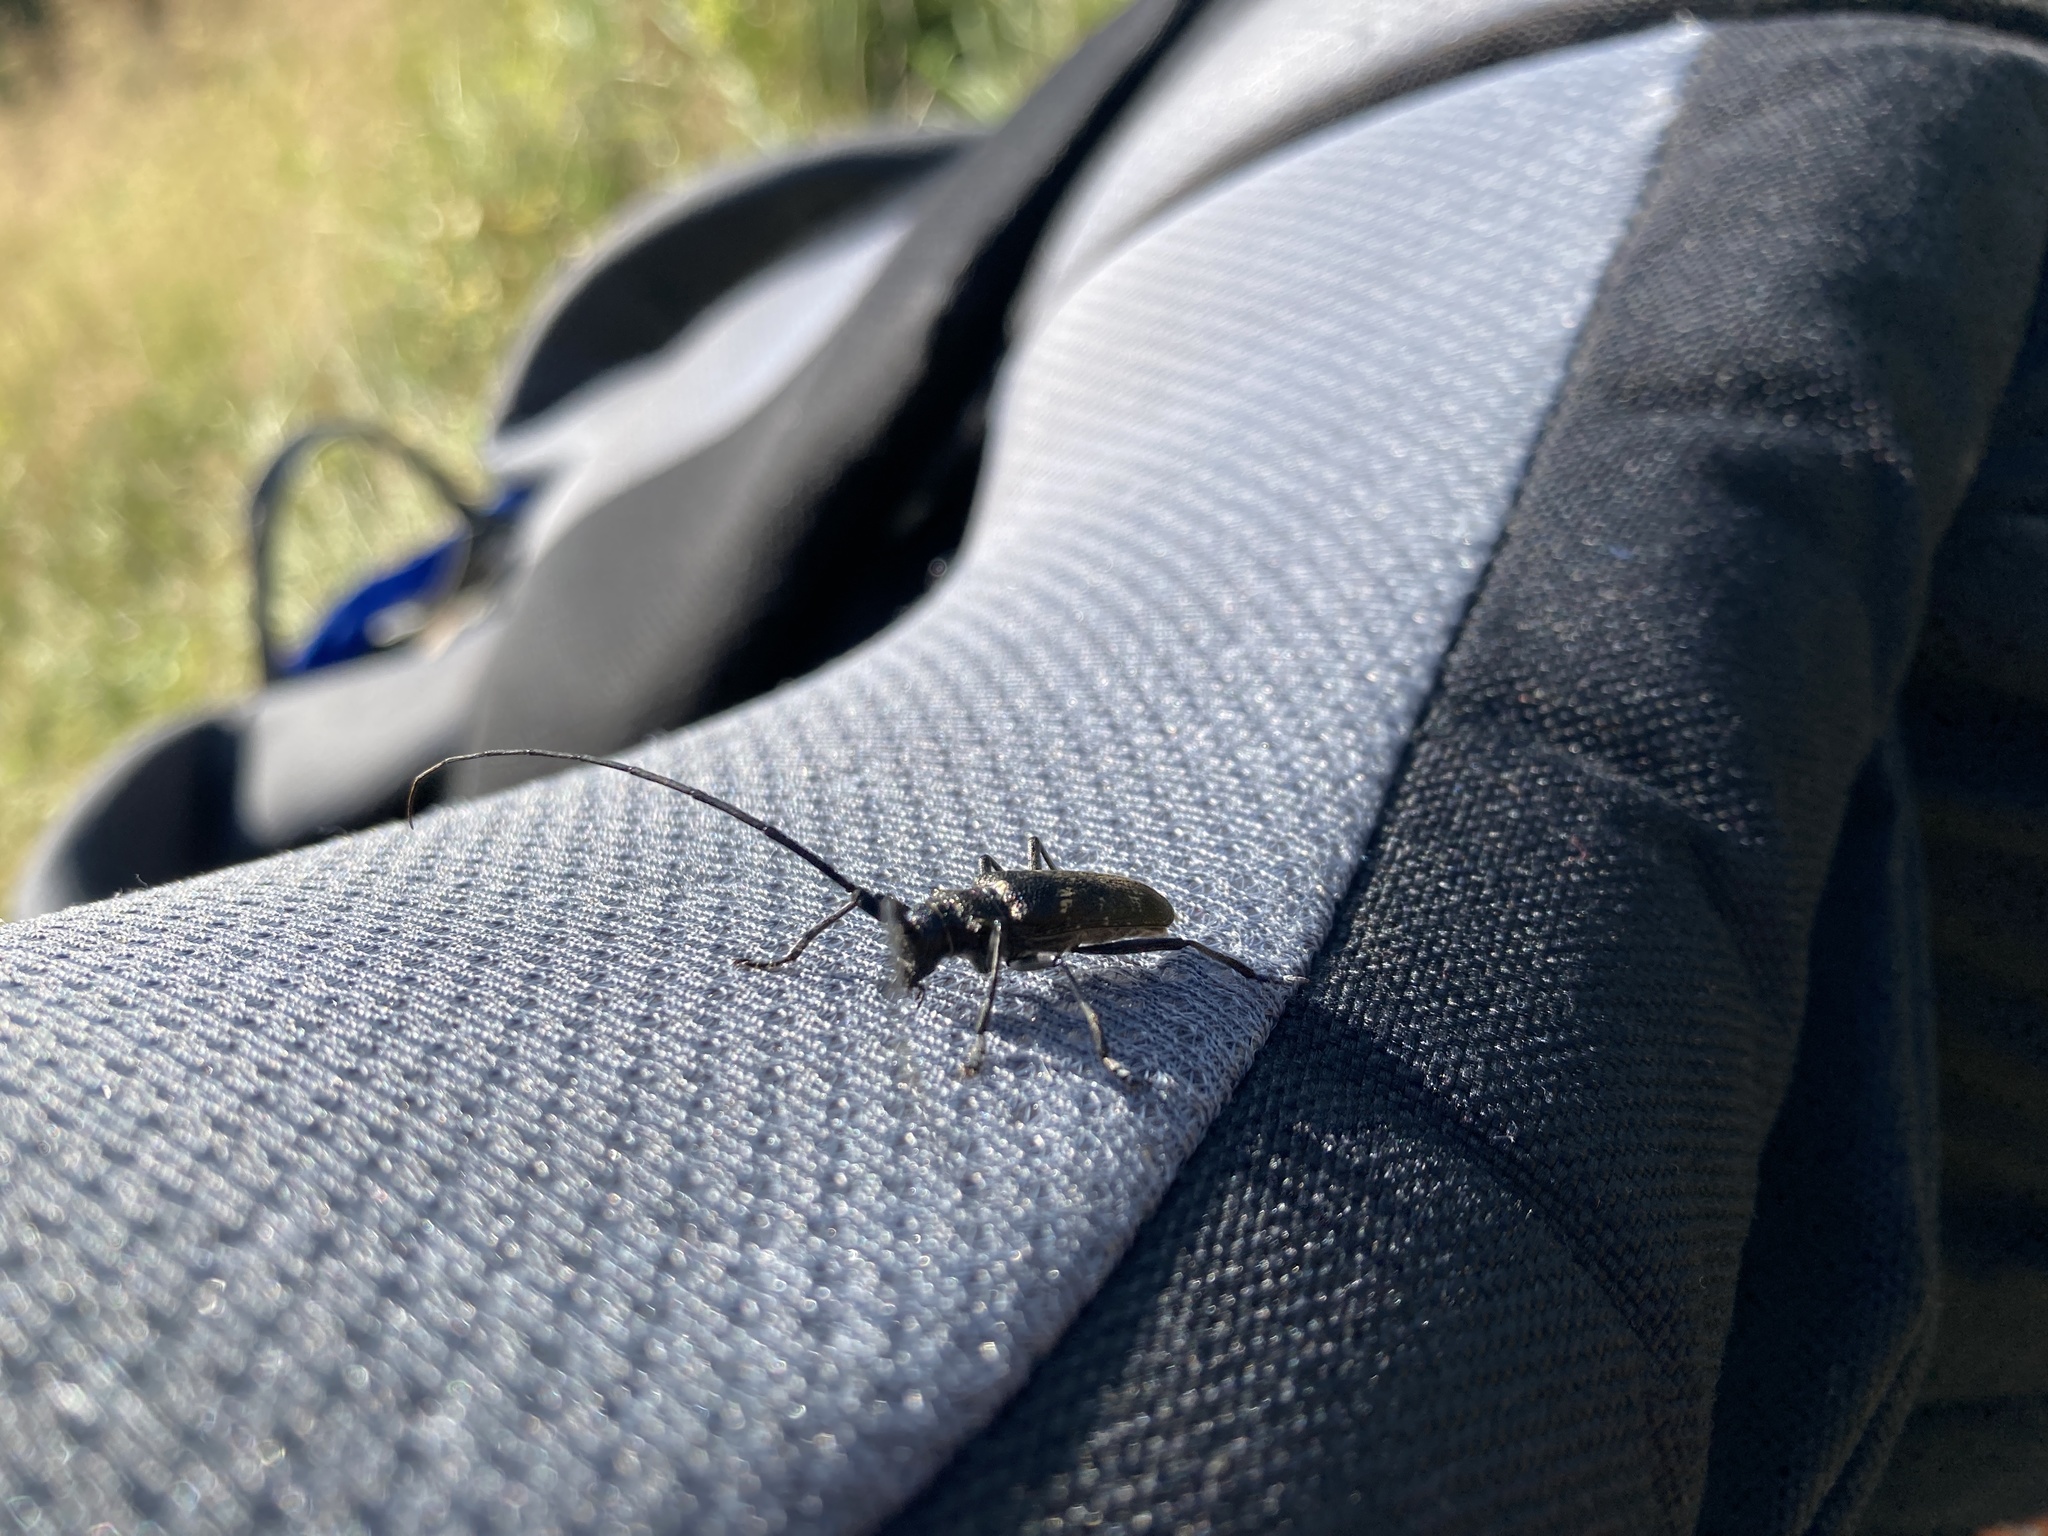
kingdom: Animalia
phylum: Arthropoda
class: Insecta
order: Coleoptera
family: Cerambycidae
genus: Monochamus
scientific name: Monochamus sutor
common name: Pine sawyer
